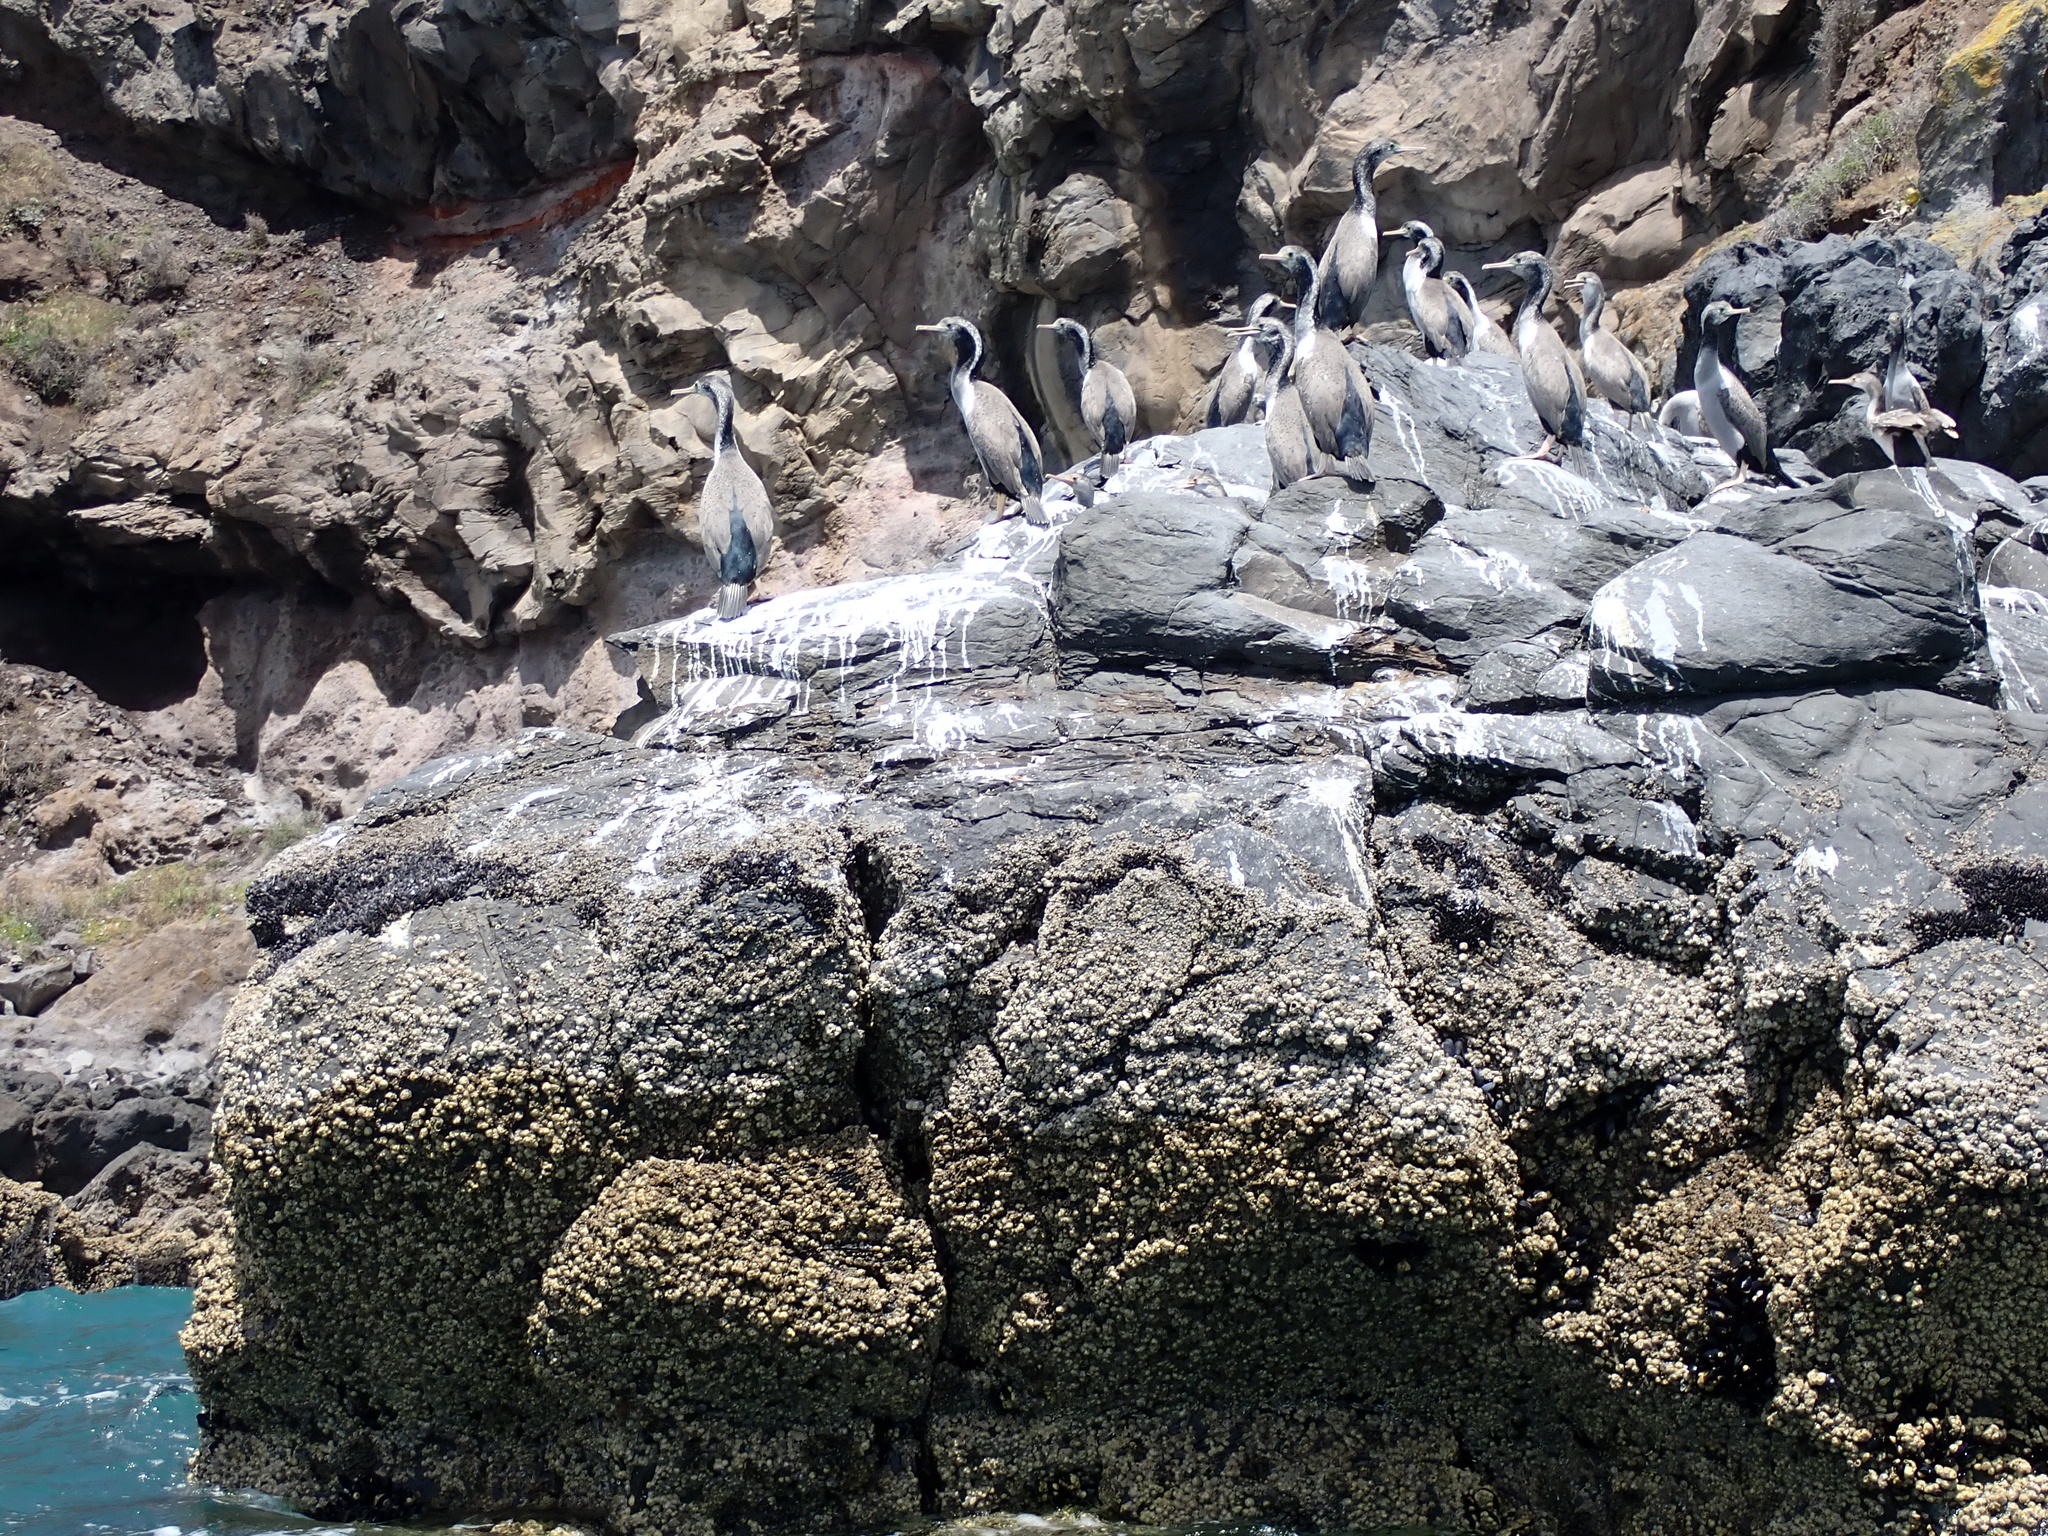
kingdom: Animalia
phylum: Chordata
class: Aves
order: Suliformes
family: Phalacrocoracidae
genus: Phalacrocorax
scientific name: Phalacrocorax punctatus
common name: Spotted shag
